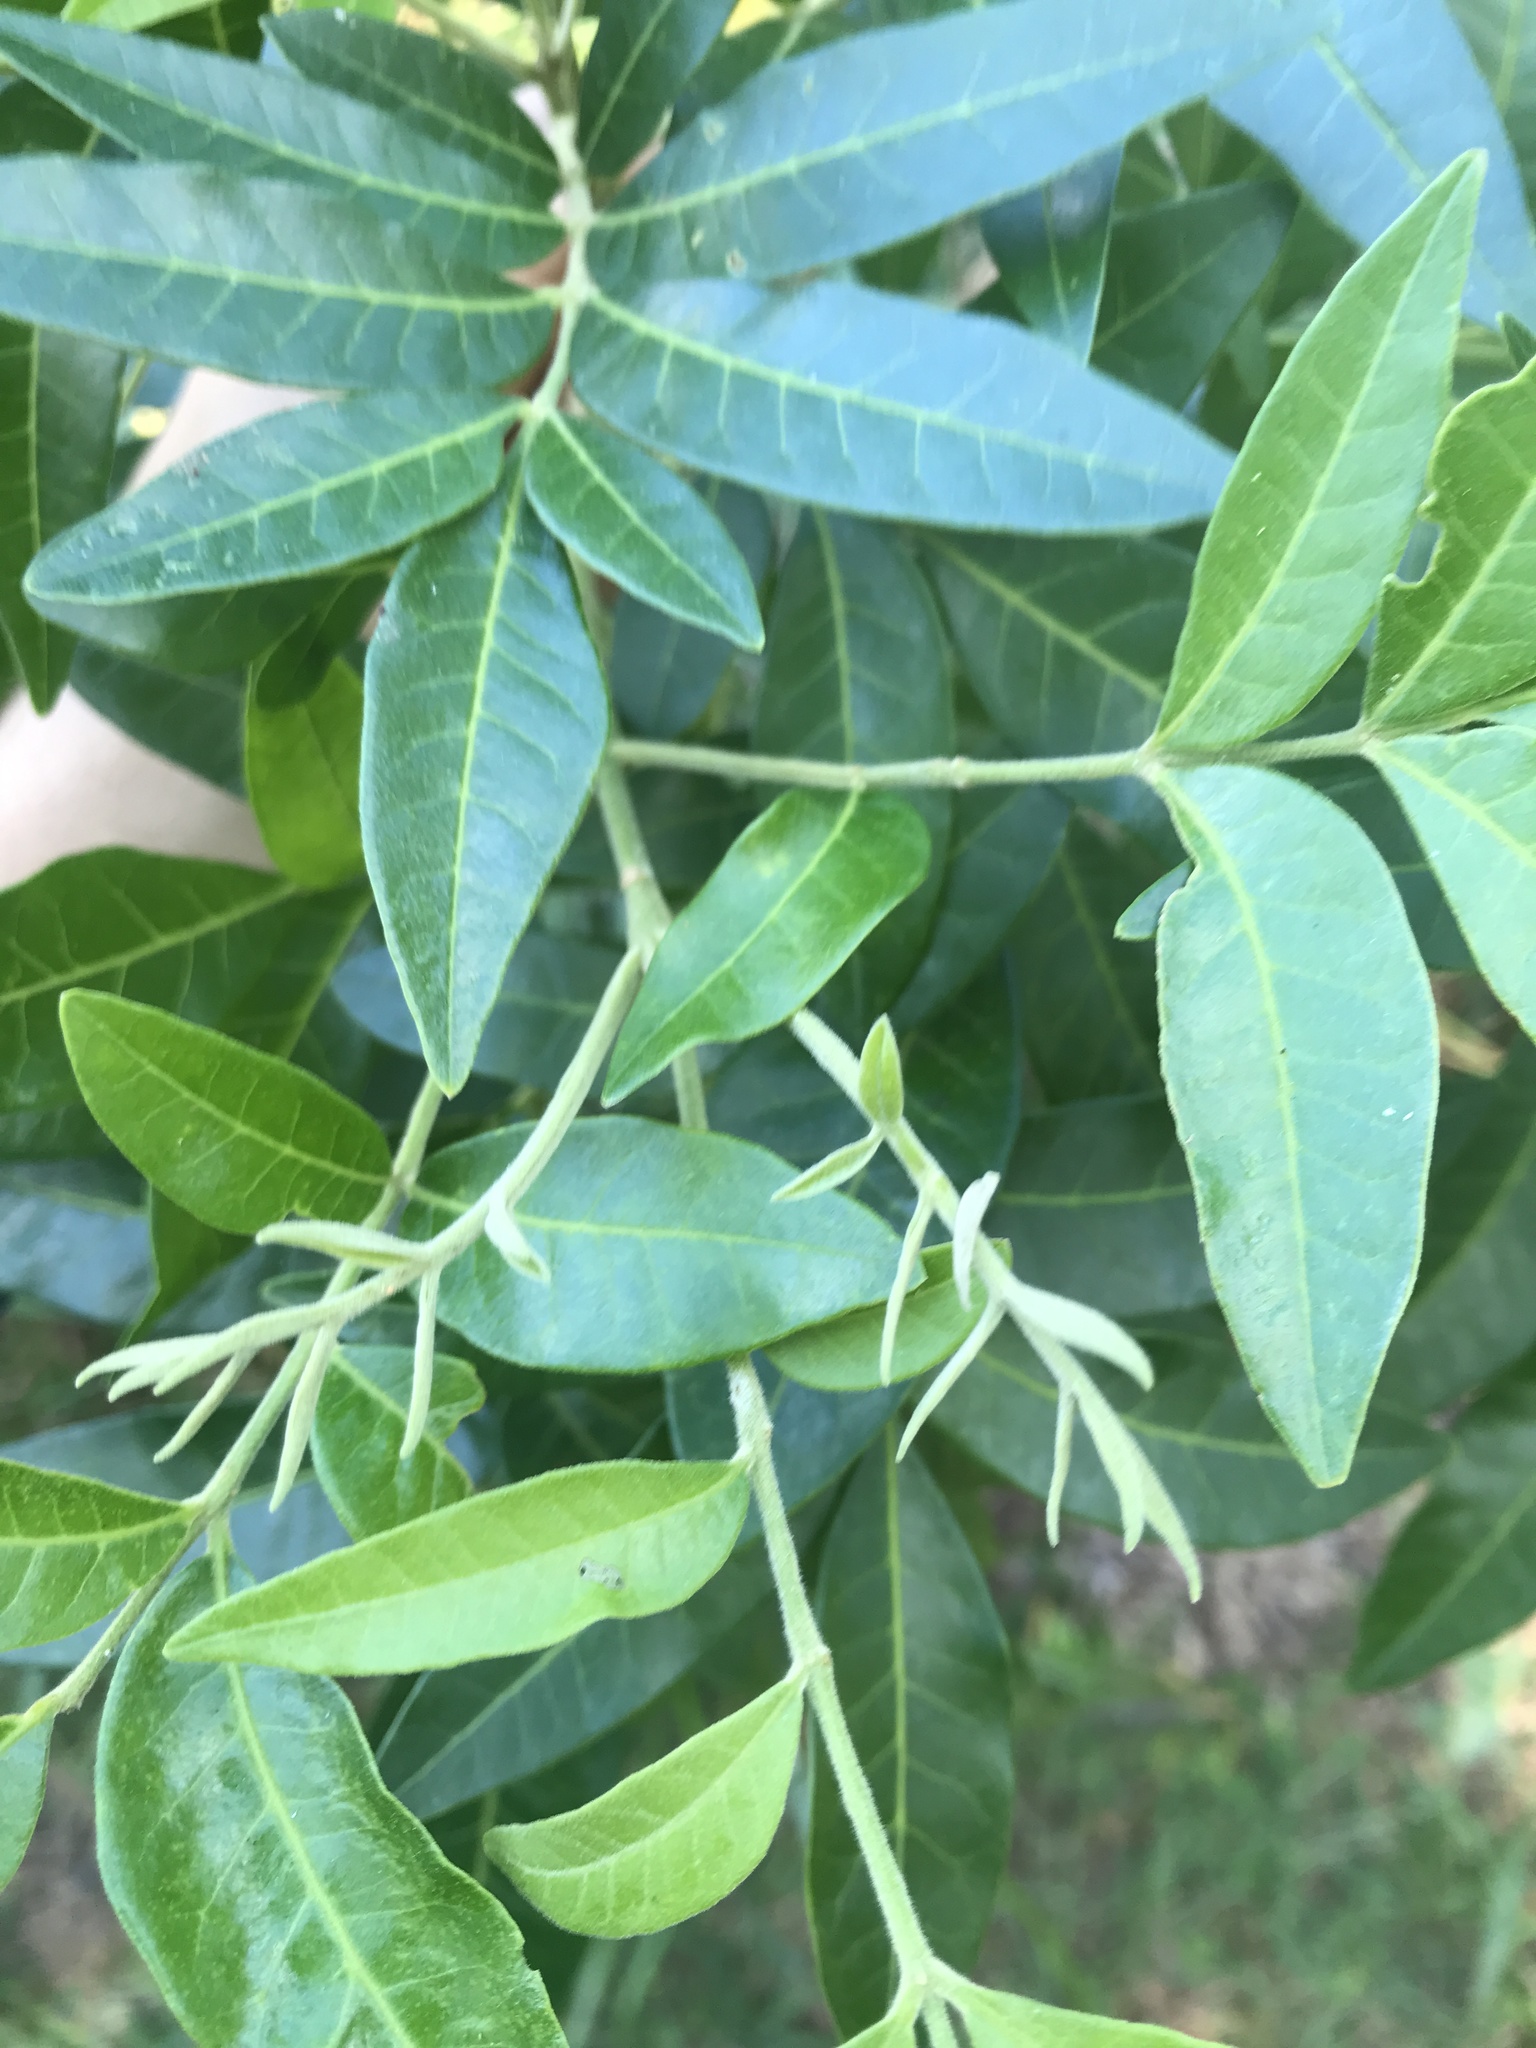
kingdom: Plantae
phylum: Tracheophyta
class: Magnoliopsida
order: Sapindales
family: Rutaceae
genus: Flindersia
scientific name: Flindersia xanthoxyla
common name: Long-jack
